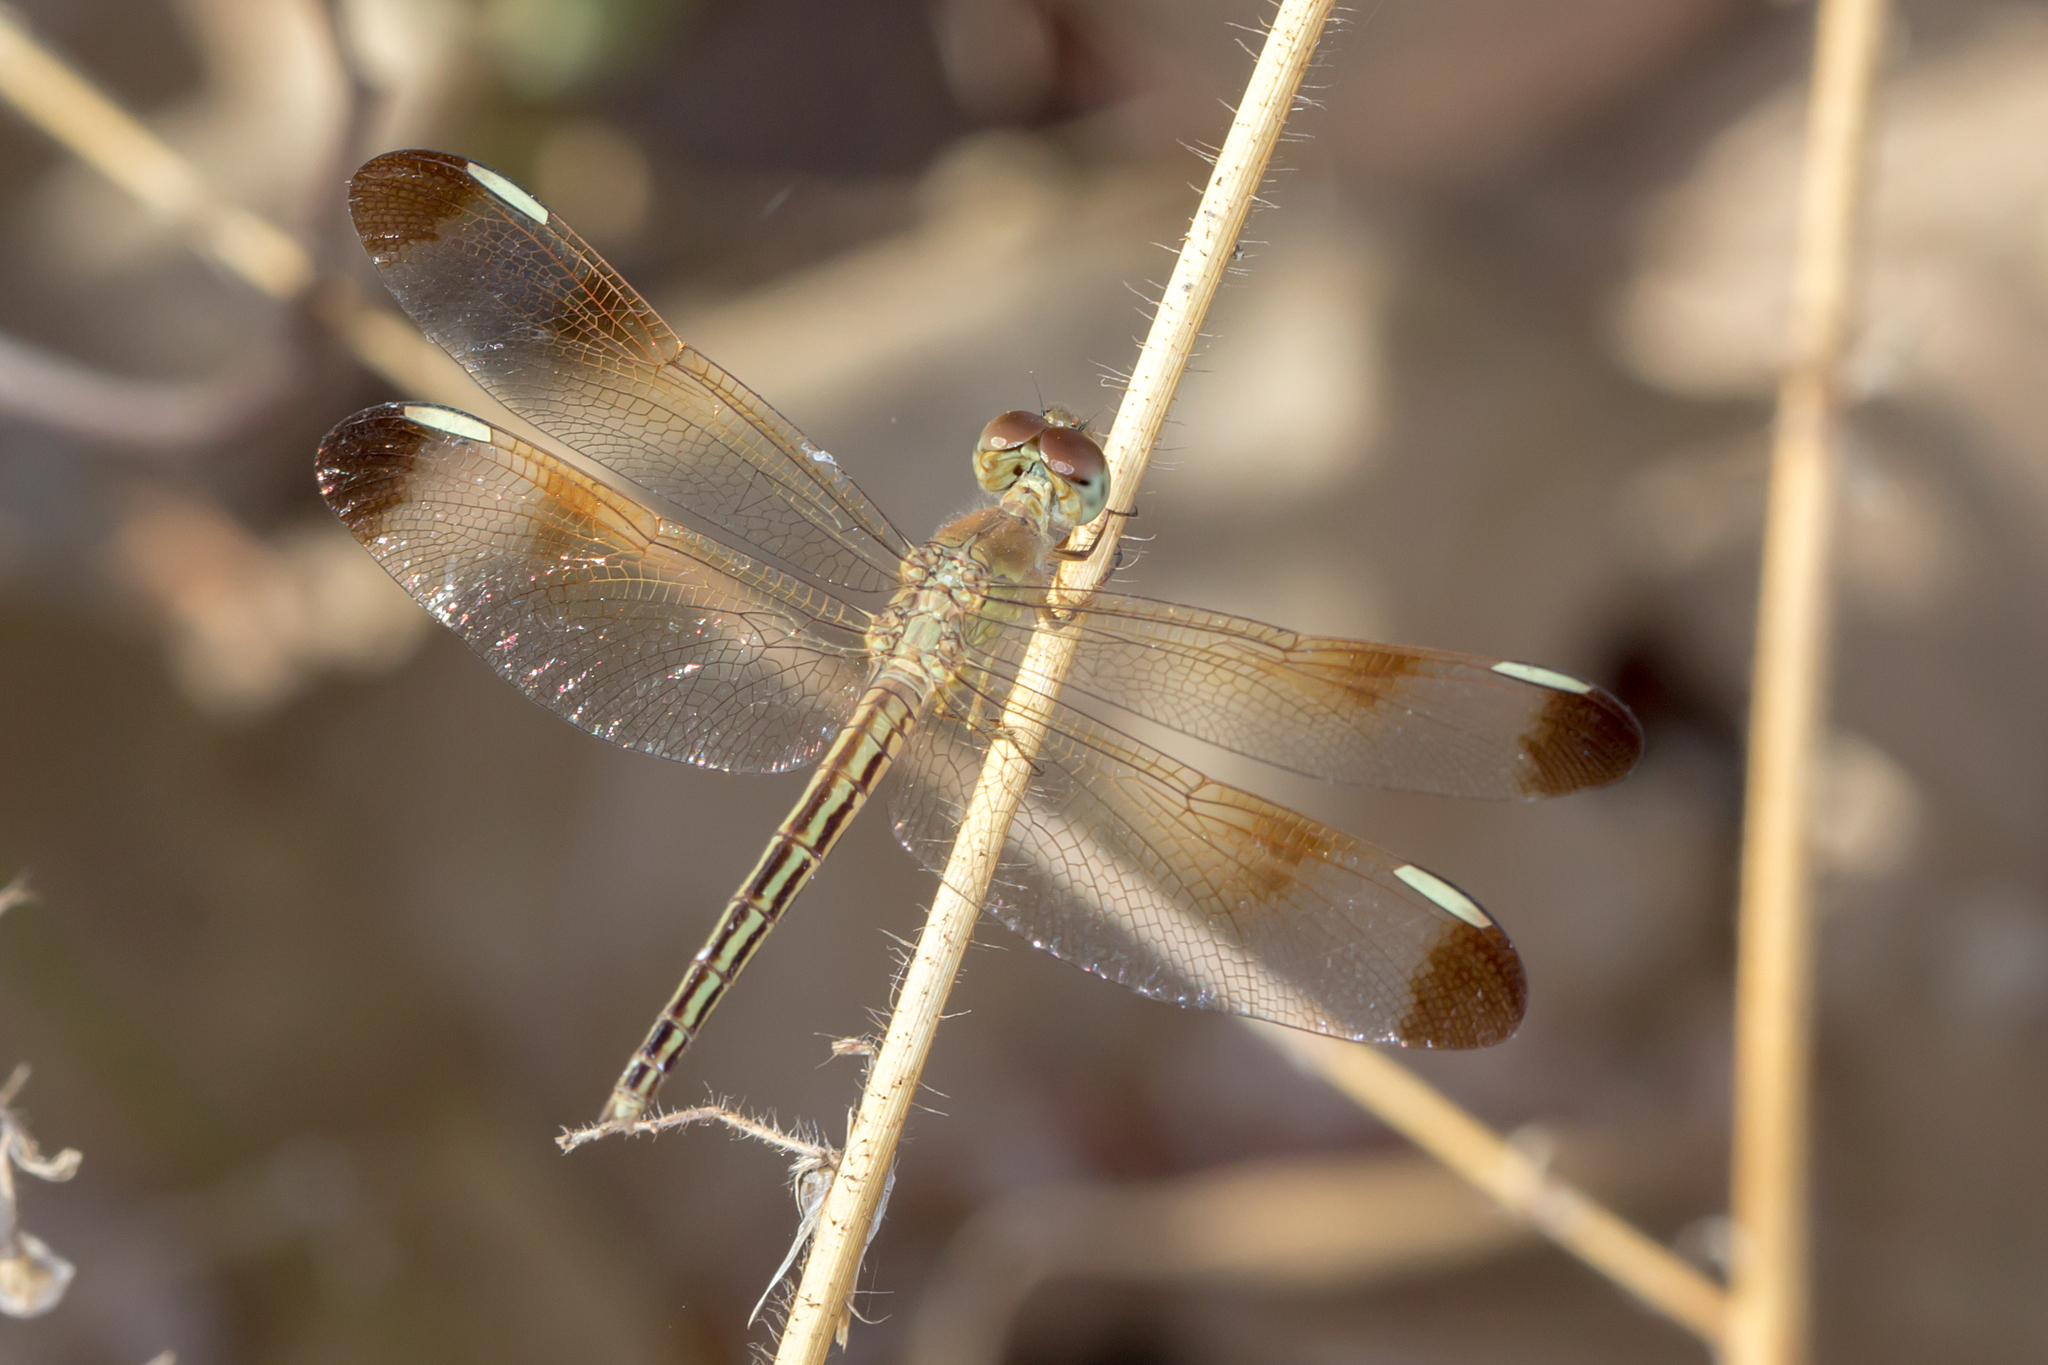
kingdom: Animalia
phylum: Arthropoda
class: Insecta
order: Odonata
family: Libellulidae
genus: Neurothemis
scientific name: Neurothemis stigmatizans
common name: Painted grasshawk
